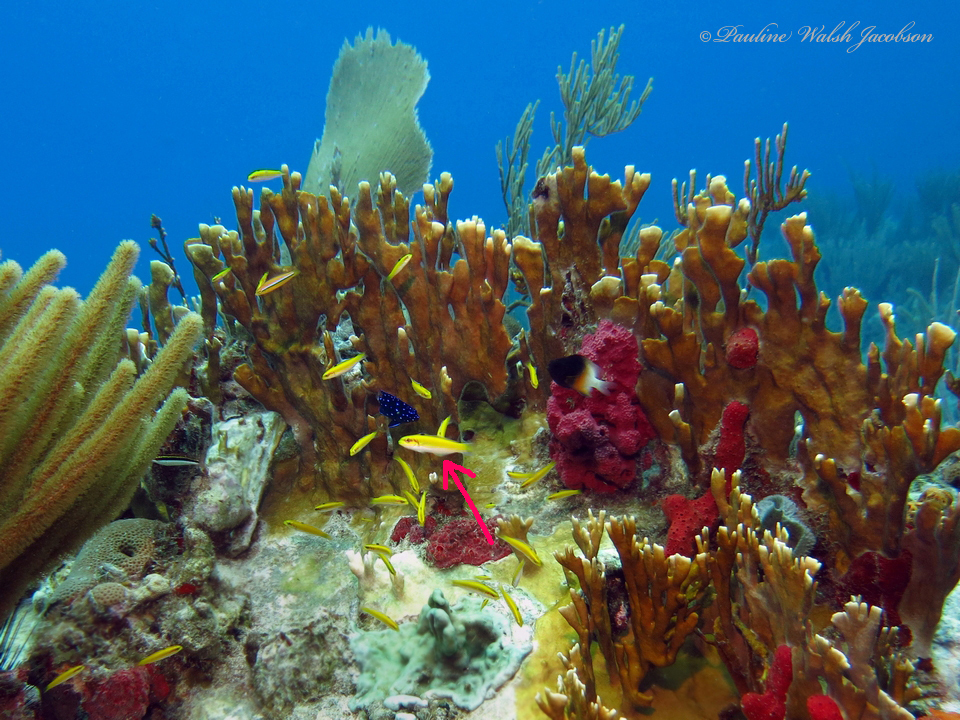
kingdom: Animalia
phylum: Chordata
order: Perciformes
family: Labridae
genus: Thalassoma
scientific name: Thalassoma bifasciatum
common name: Bluehead wrasse
